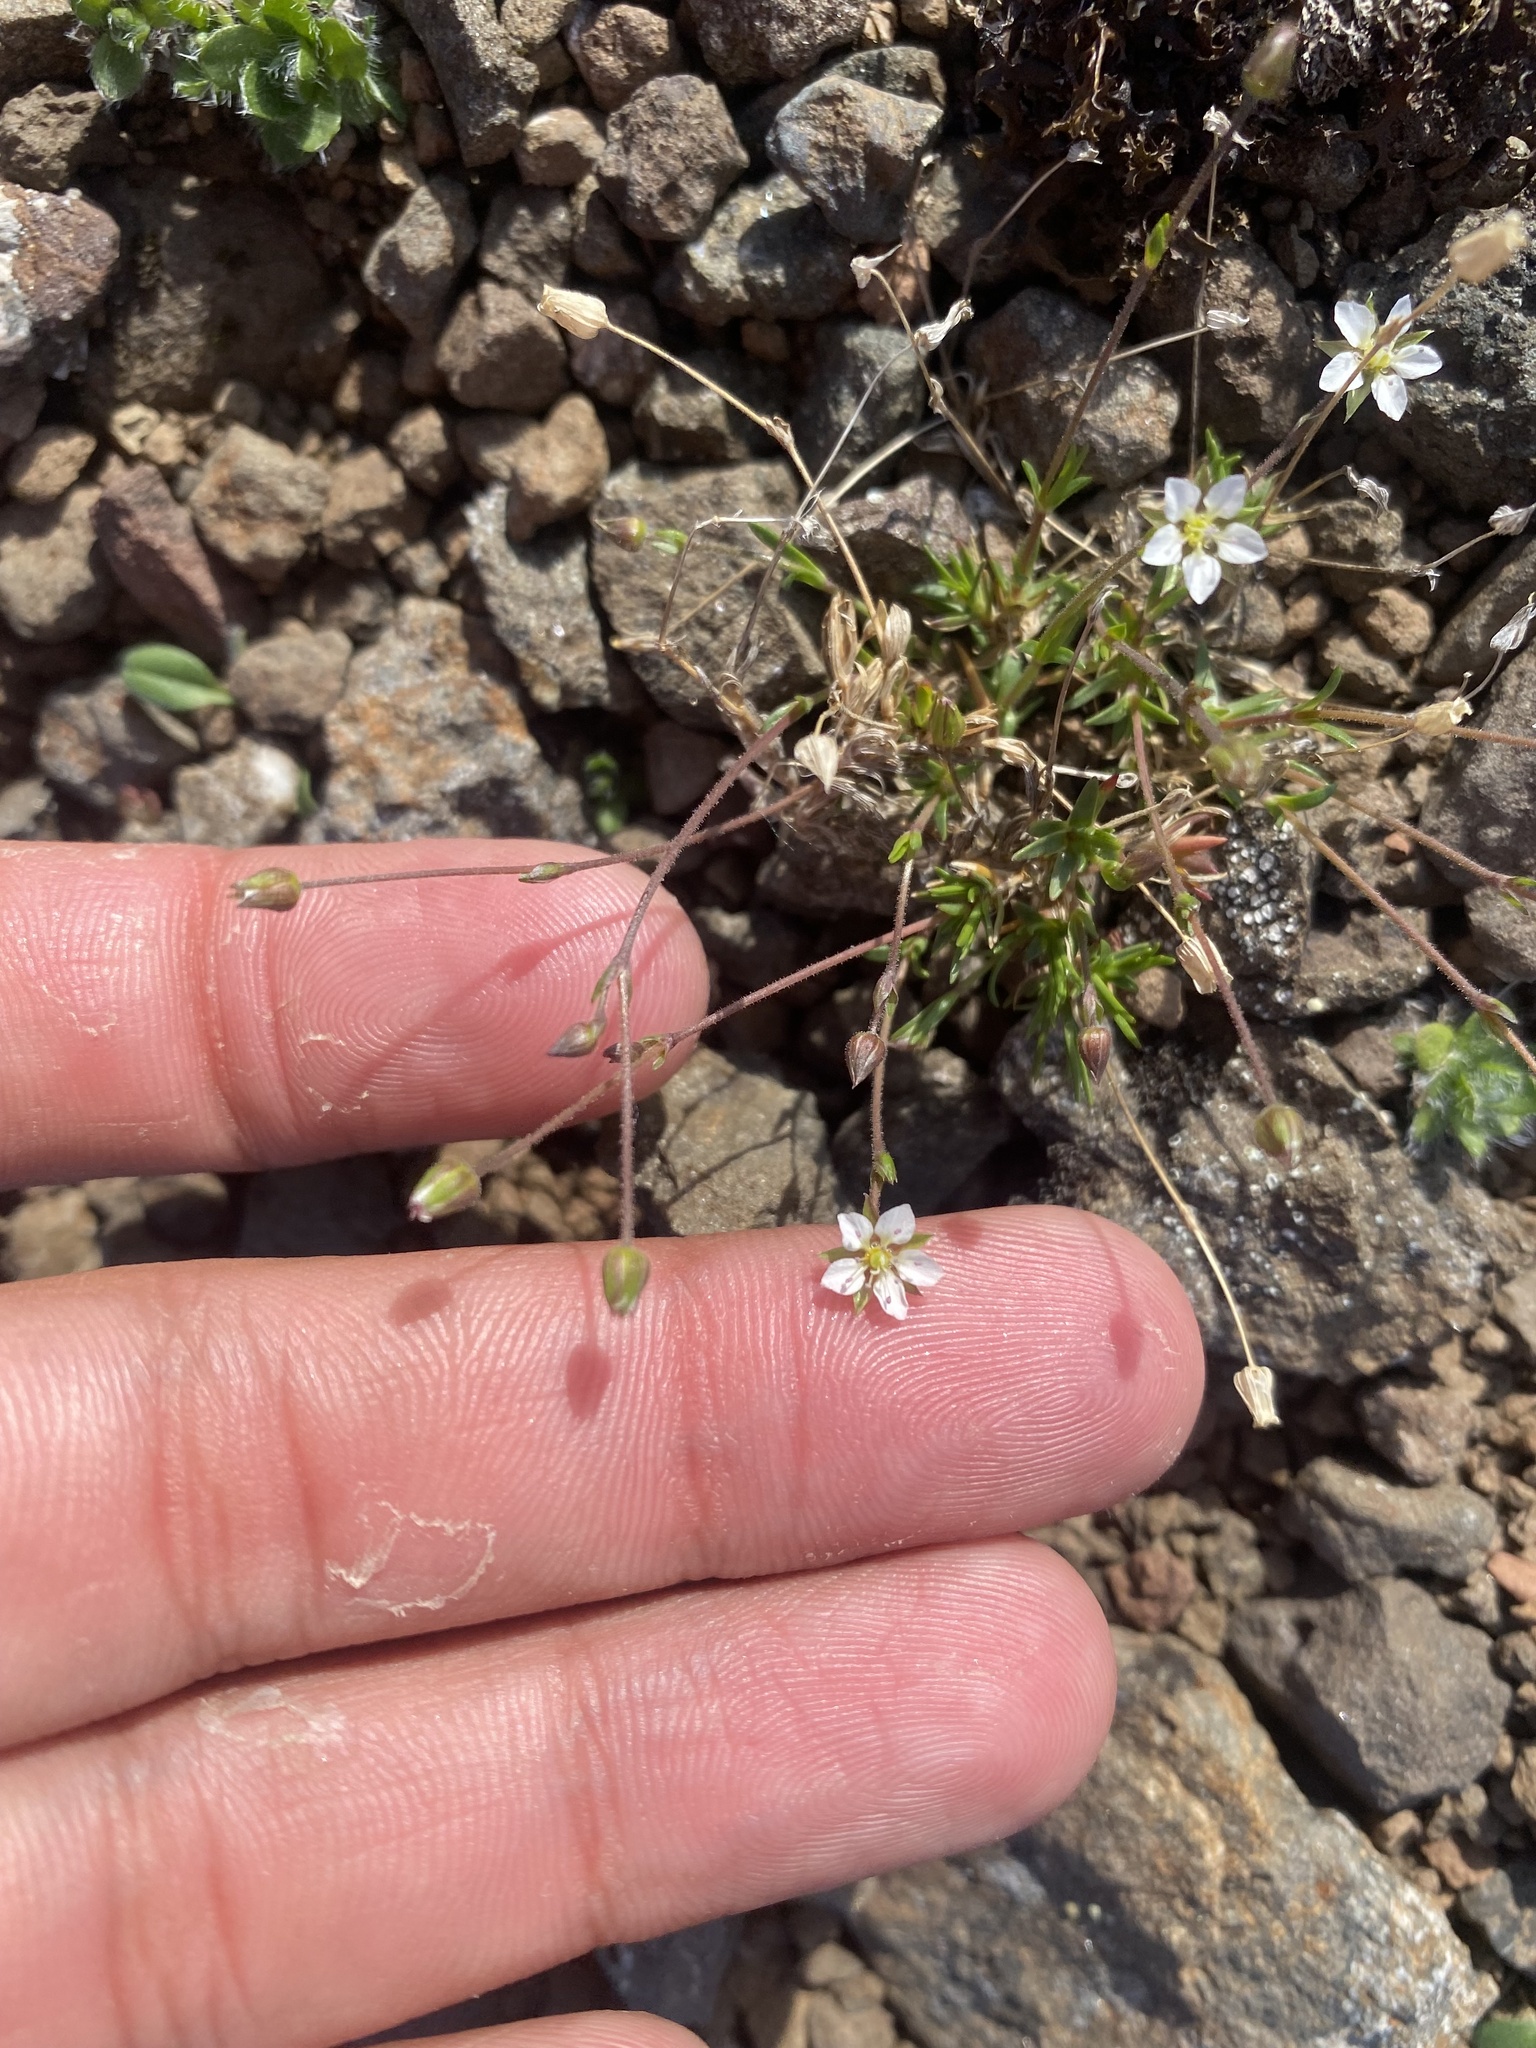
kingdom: Plantae
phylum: Tracheophyta
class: Magnoliopsida
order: Caryophyllales
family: Caryophyllaceae
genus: Sabulina
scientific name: Sabulina verna
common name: Spring sandwort
